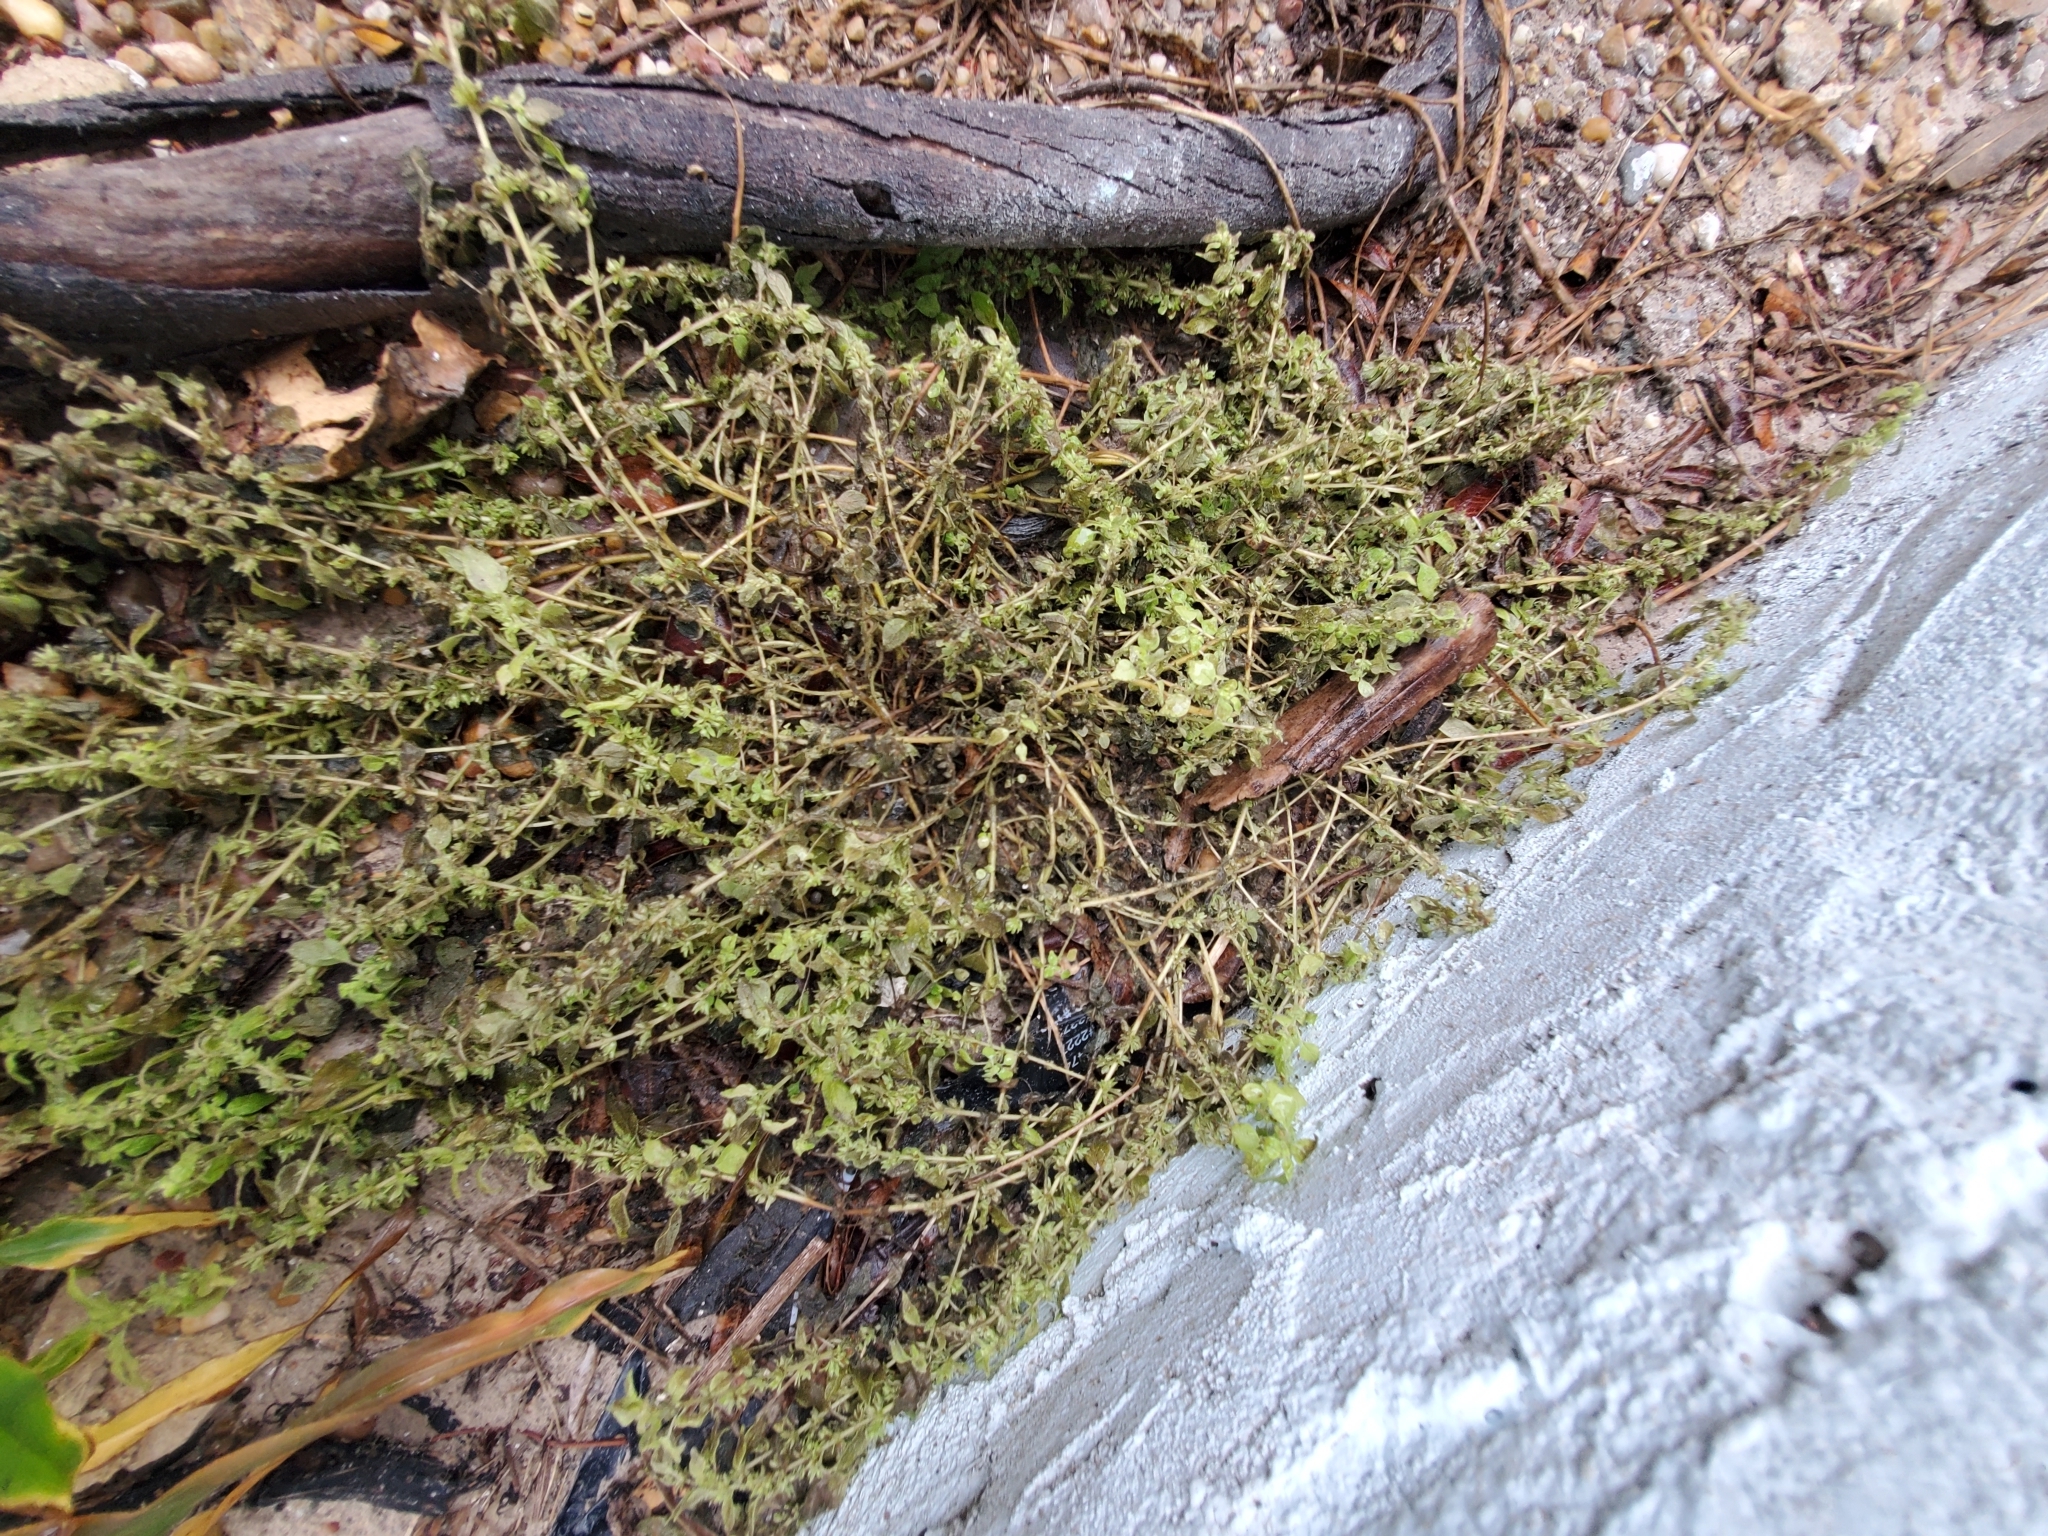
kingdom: Plantae
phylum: Tracheophyta
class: Magnoliopsida
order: Rosales
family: Urticaceae
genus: Parietaria
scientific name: Parietaria pensylvanica
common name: Pennsylvania pellitory
